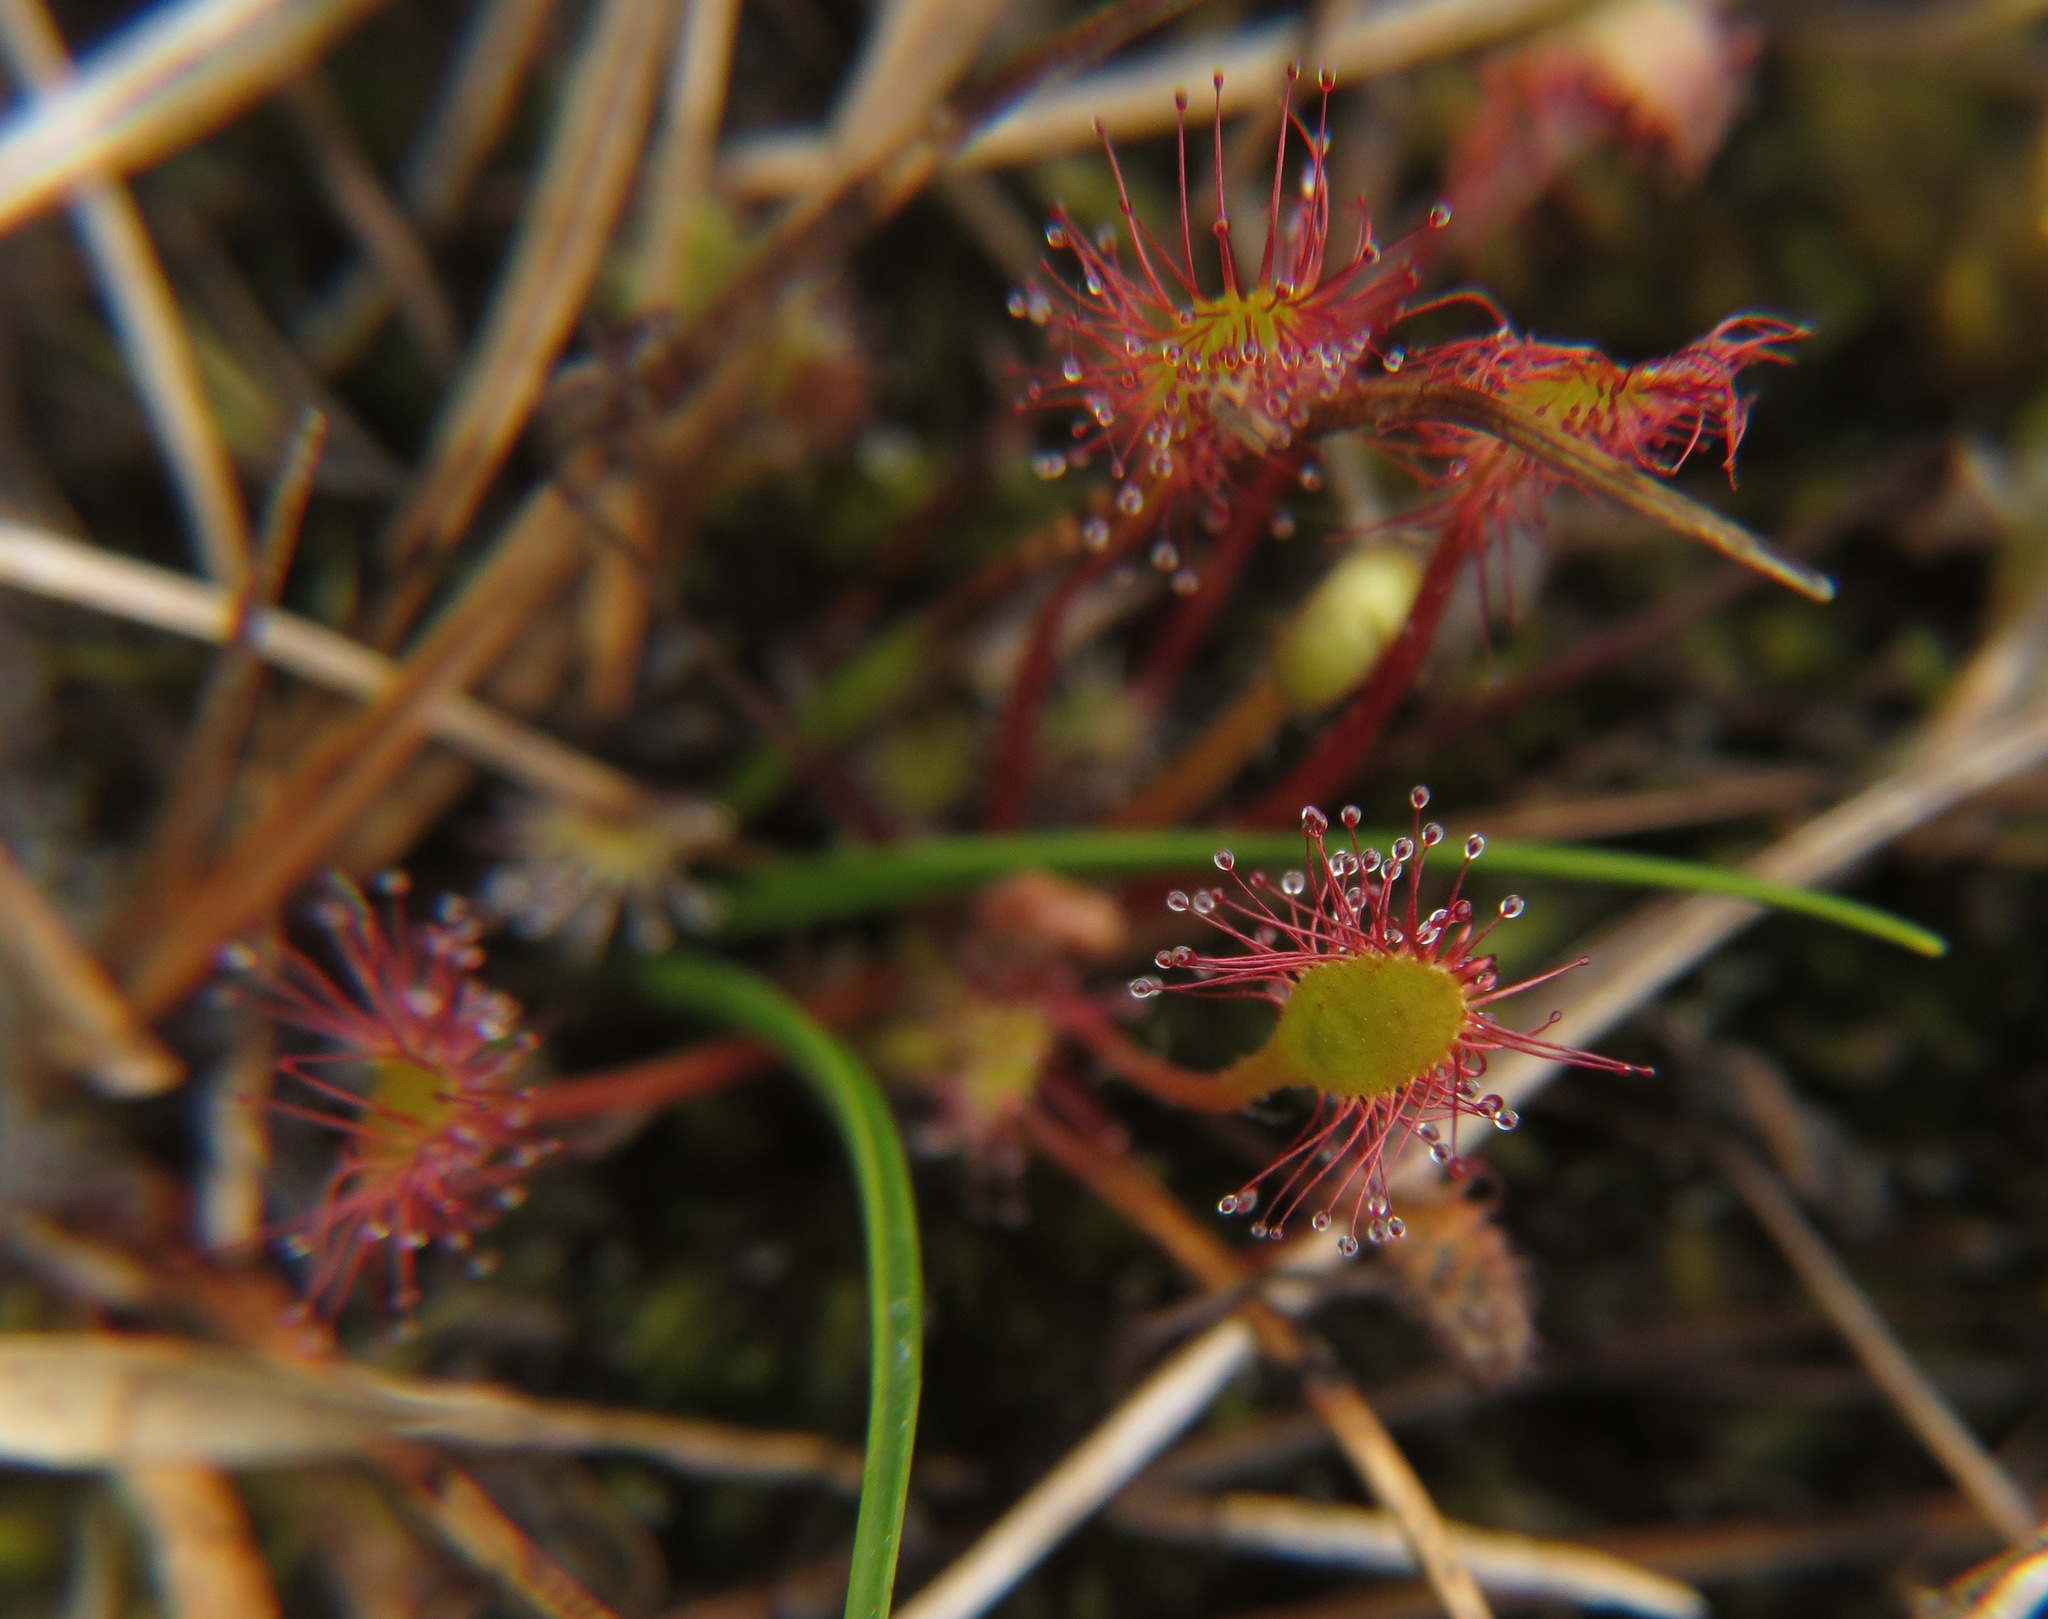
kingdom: Plantae
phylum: Tracheophyta
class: Magnoliopsida
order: Caryophyllales
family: Droseraceae
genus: Drosera
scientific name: Drosera anglica
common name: Great sundew
